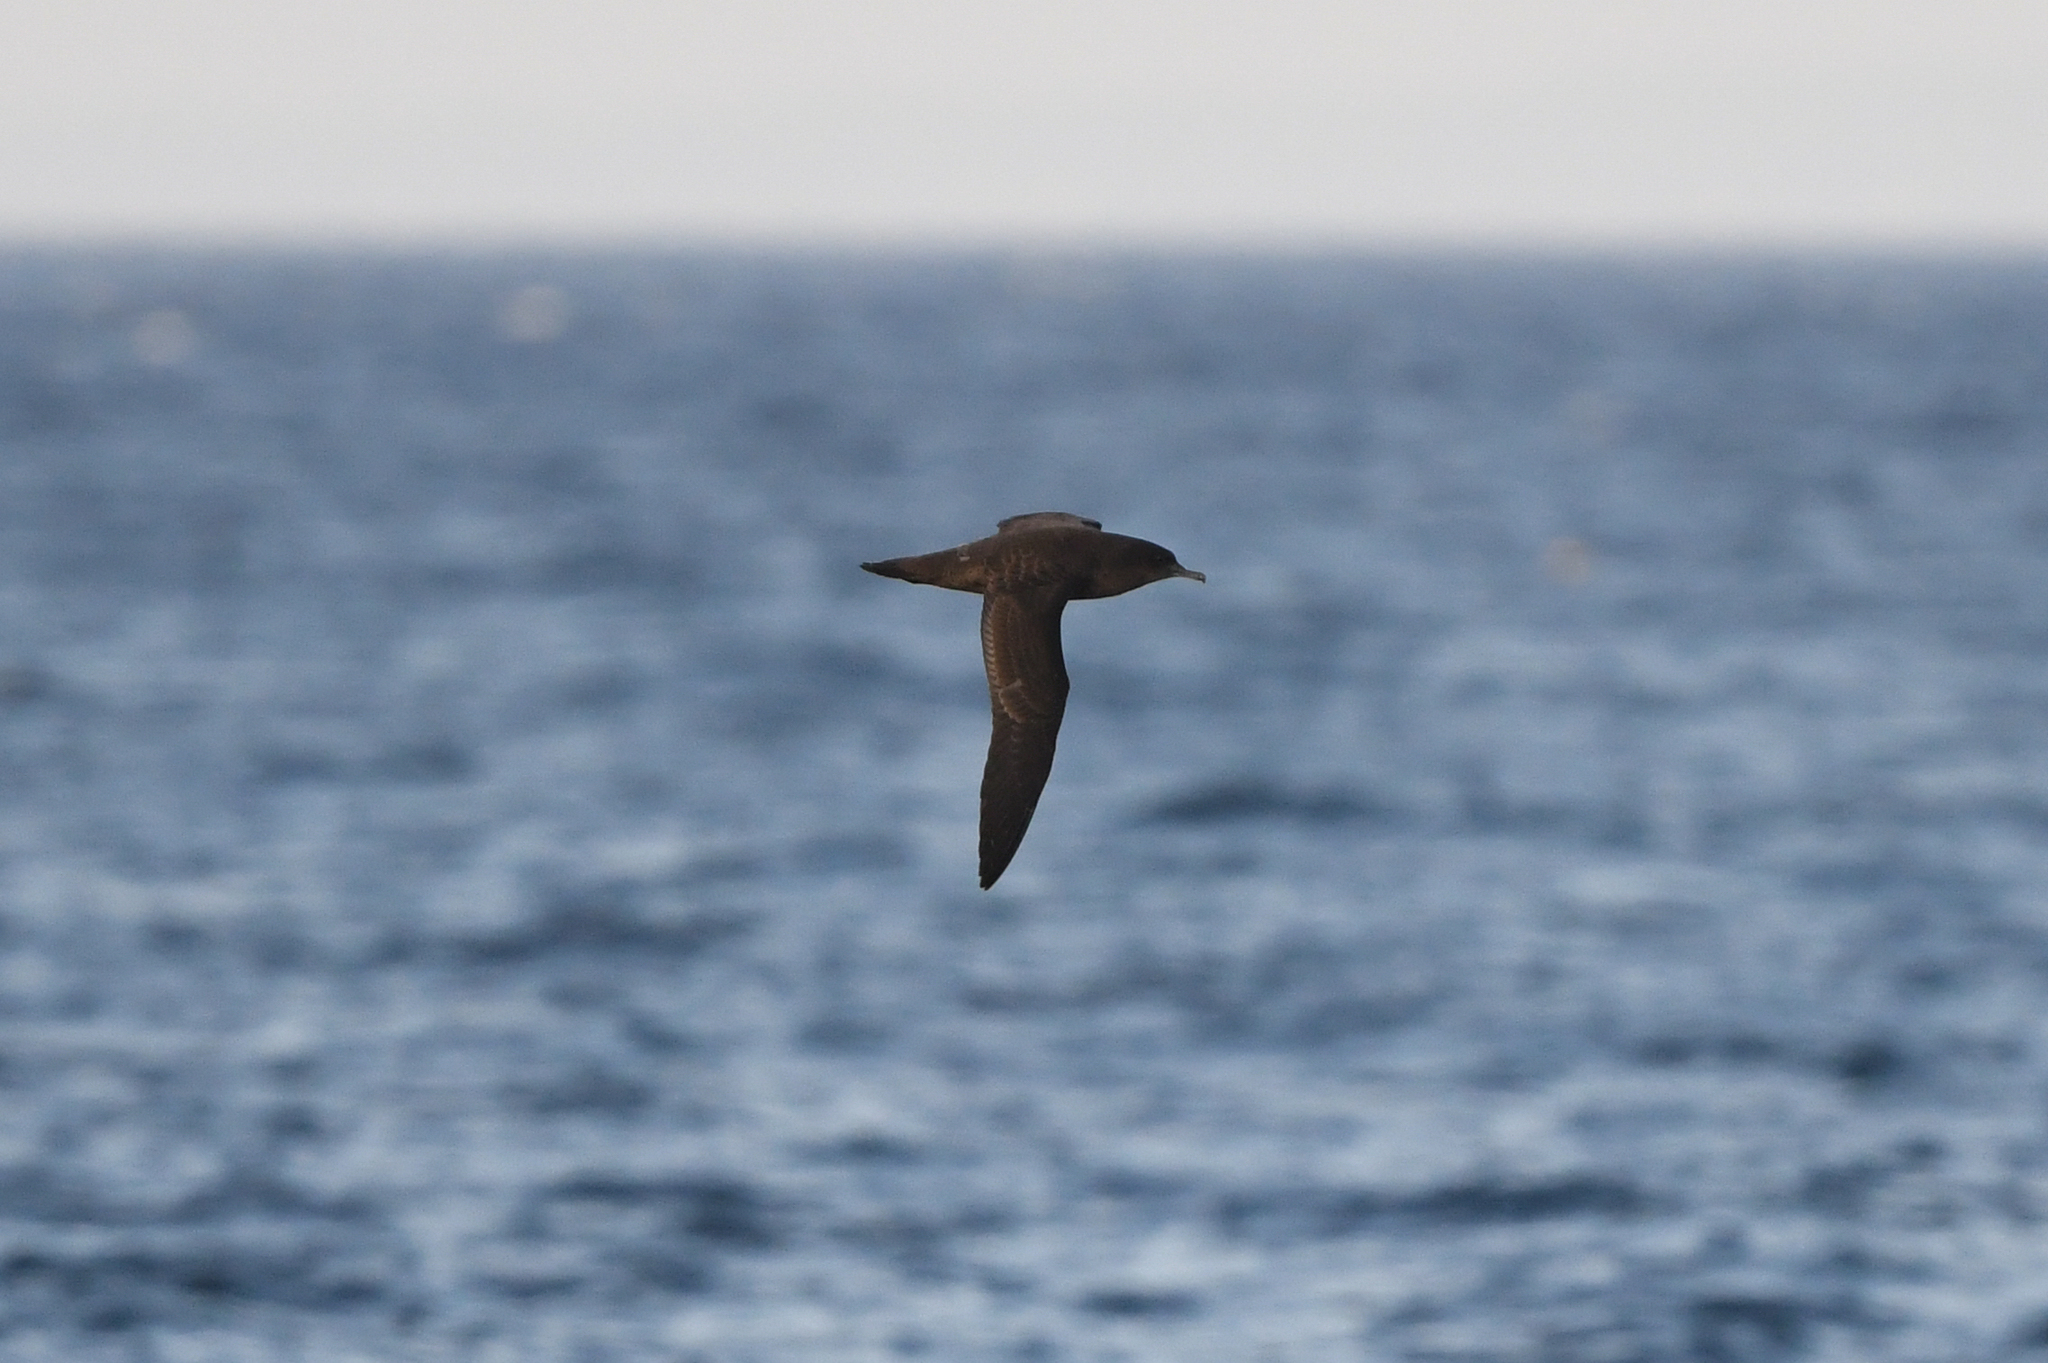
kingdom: Animalia
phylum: Chordata
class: Aves
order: Procellariiformes
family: Procellariidae
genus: Puffinus
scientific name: Puffinus griseus
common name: Sooty shearwater
